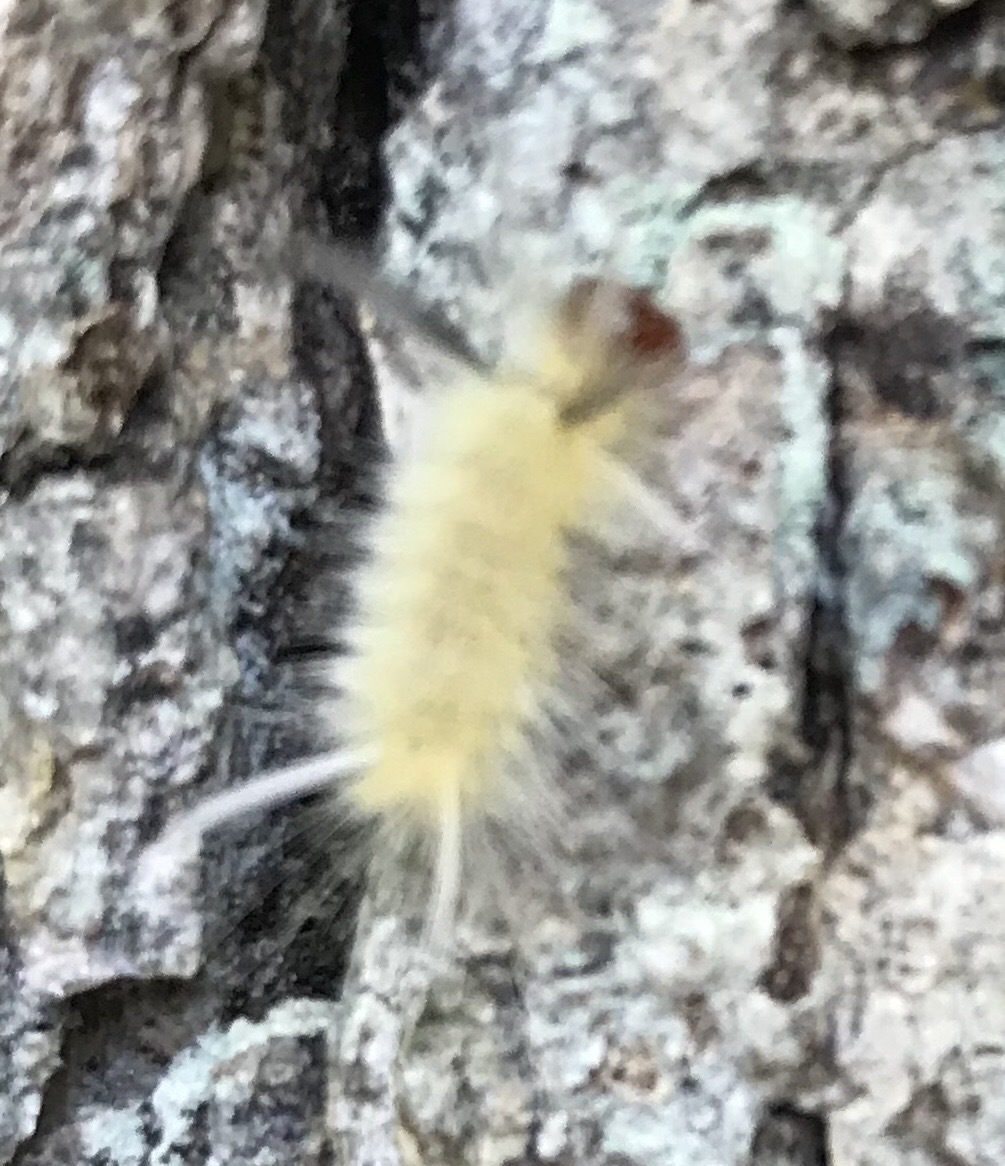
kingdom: Animalia
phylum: Arthropoda
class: Insecta
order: Lepidoptera
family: Erebidae
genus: Halysidota
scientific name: Halysidota tessellaris
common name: Banded tussock moth
